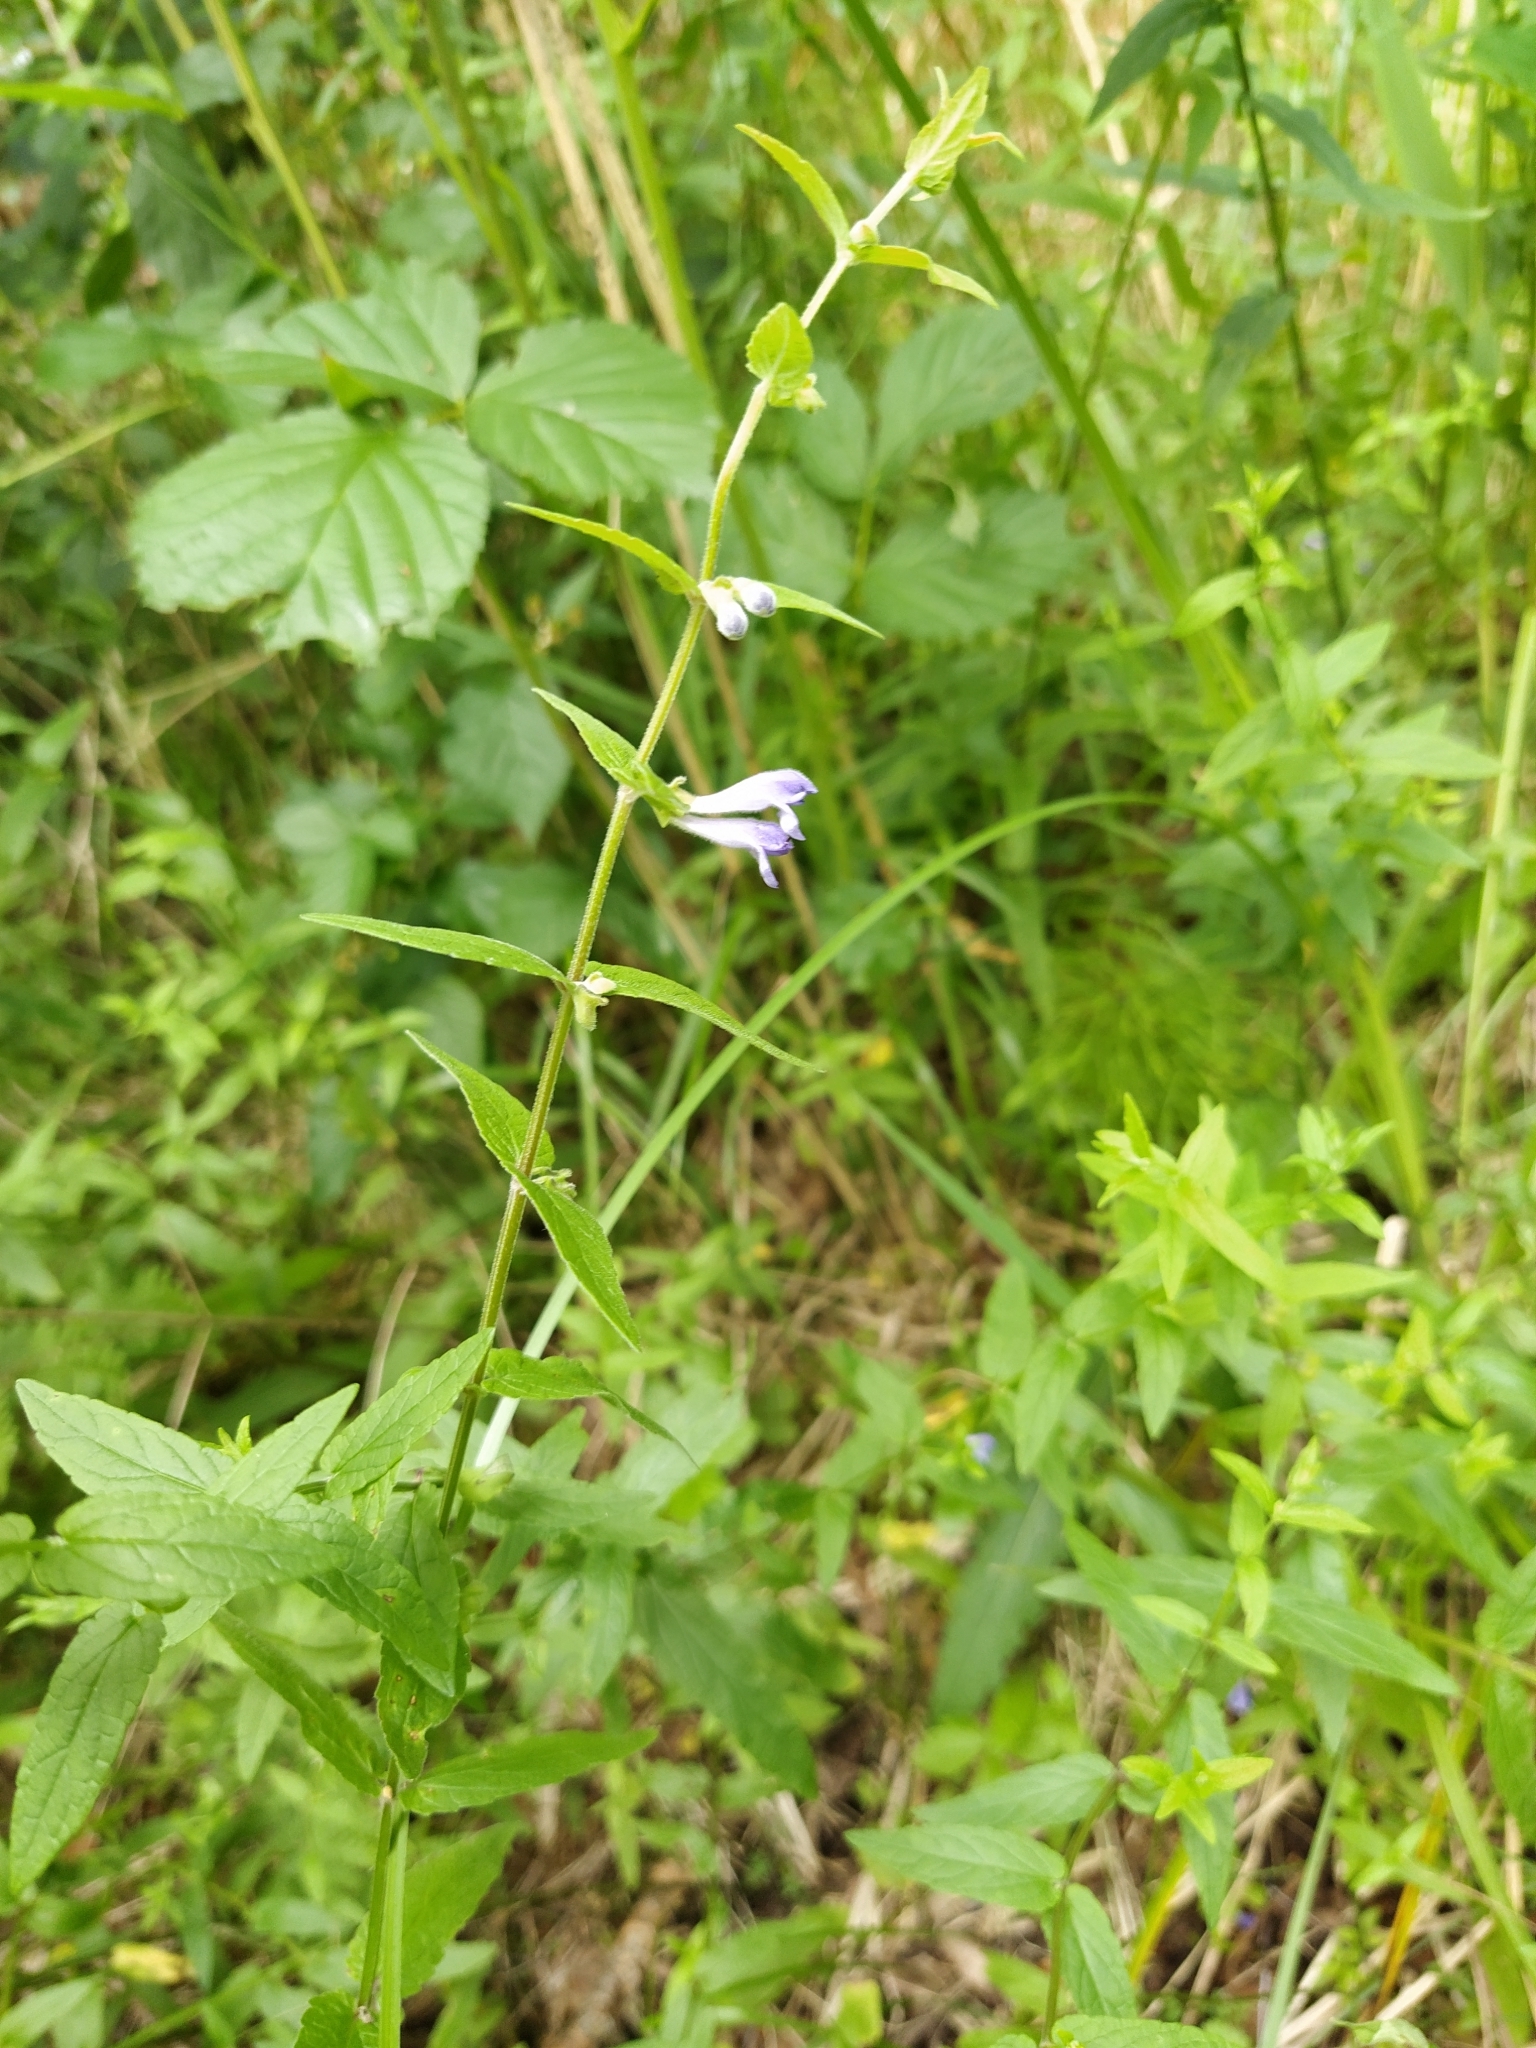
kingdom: Plantae
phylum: Tracheophyta
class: Magnoliopsida
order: Lamiales
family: Lamiaceae
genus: Scutellaria
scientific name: Scutellaria galericulata
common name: Skullcap
